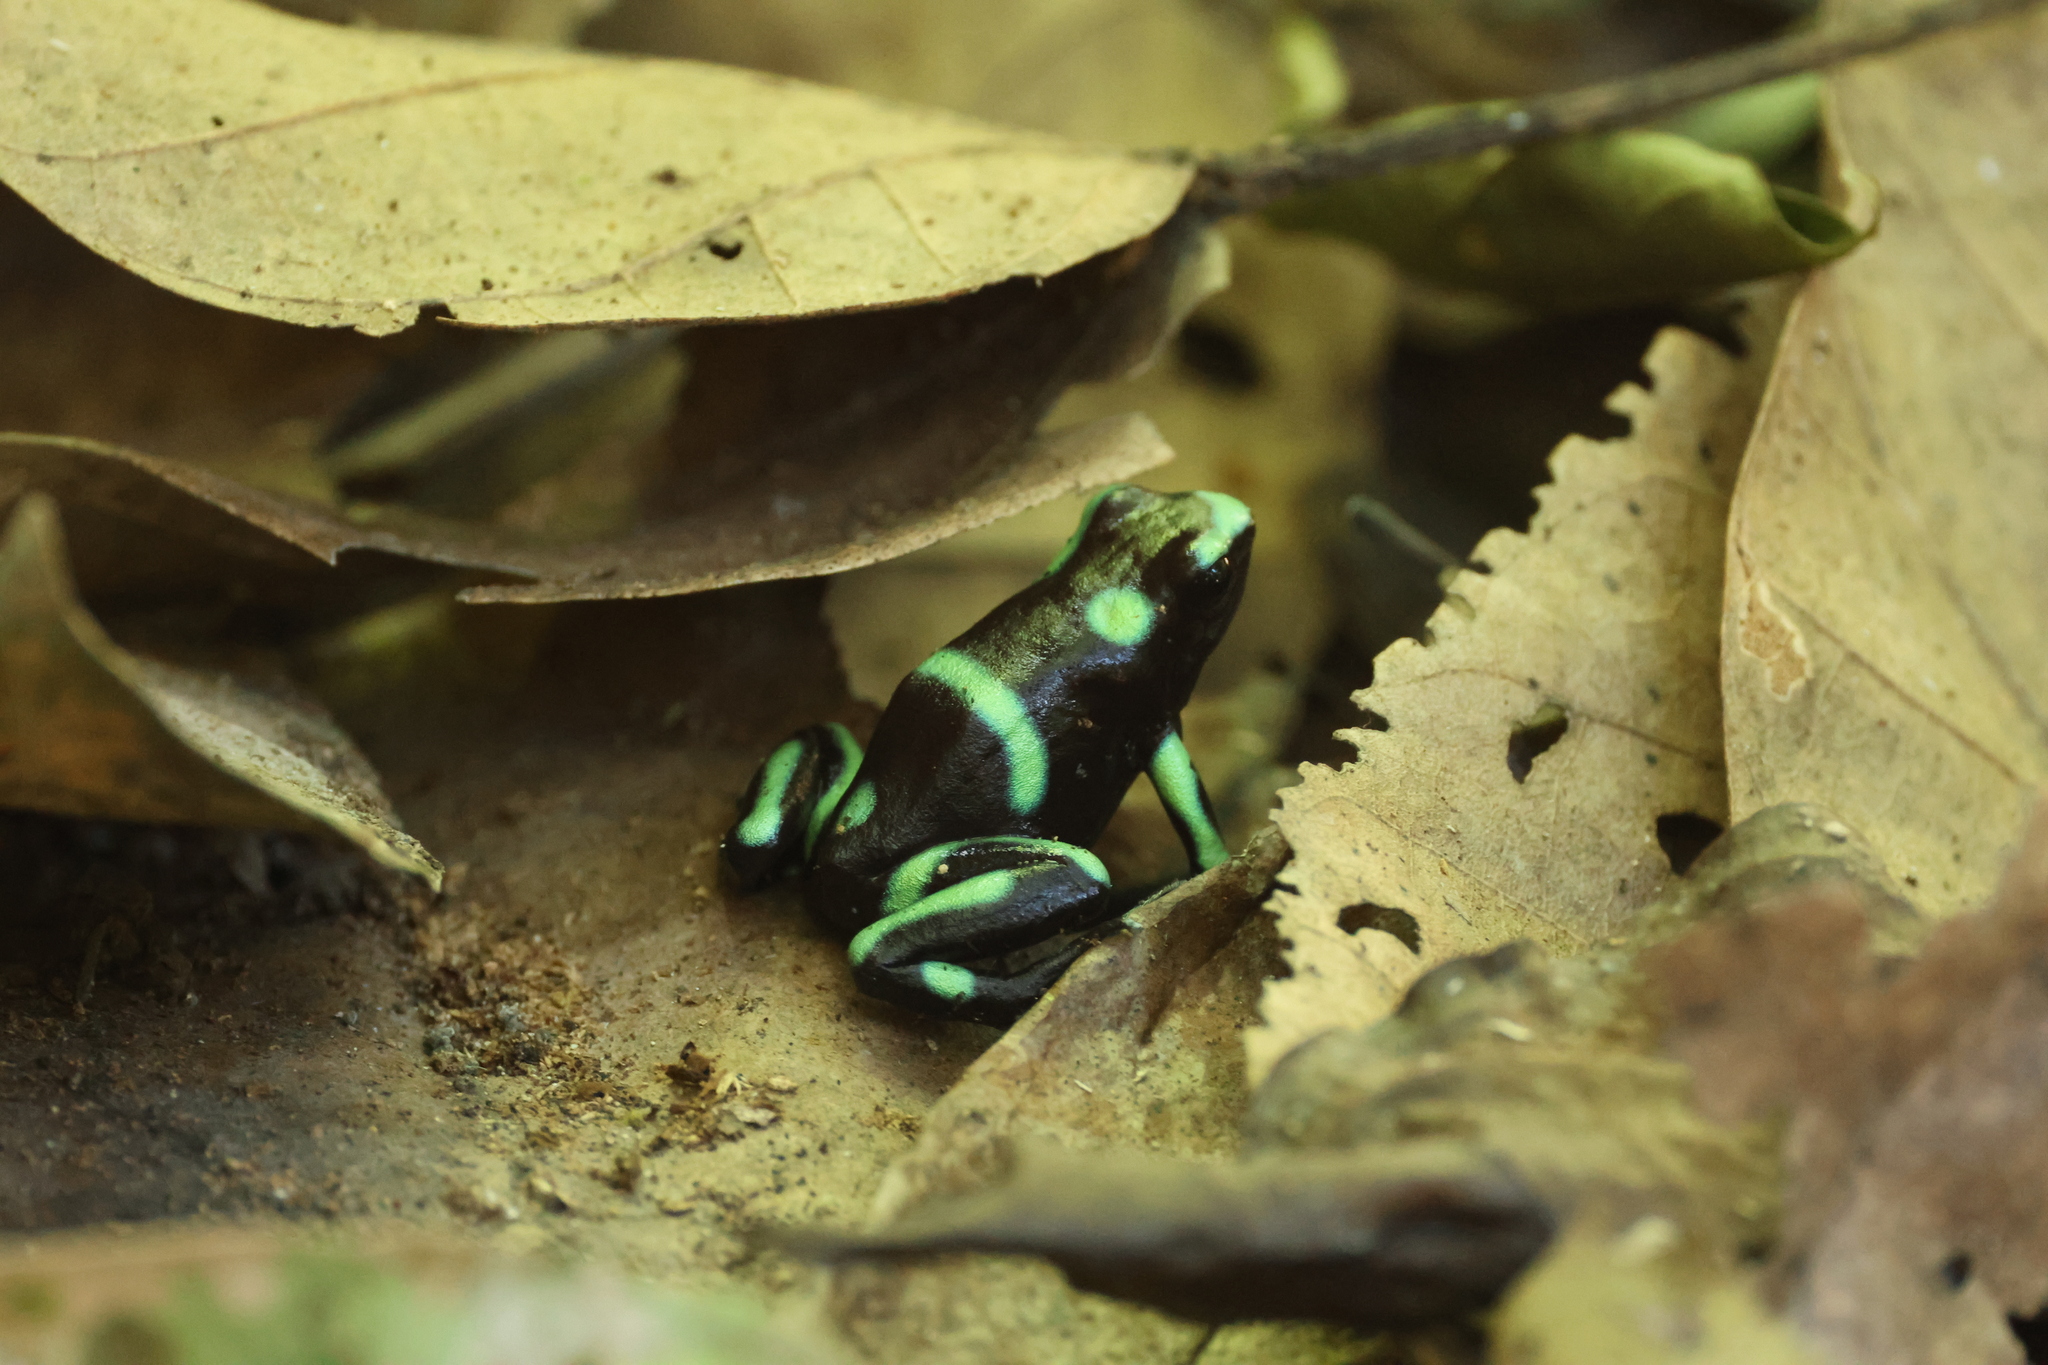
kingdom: Animalia
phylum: Chordata
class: Amphibia
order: Anura
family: Dendrobatidae
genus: Dendrobates
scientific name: Dendrobates auratus
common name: Green and black poison dart frog
